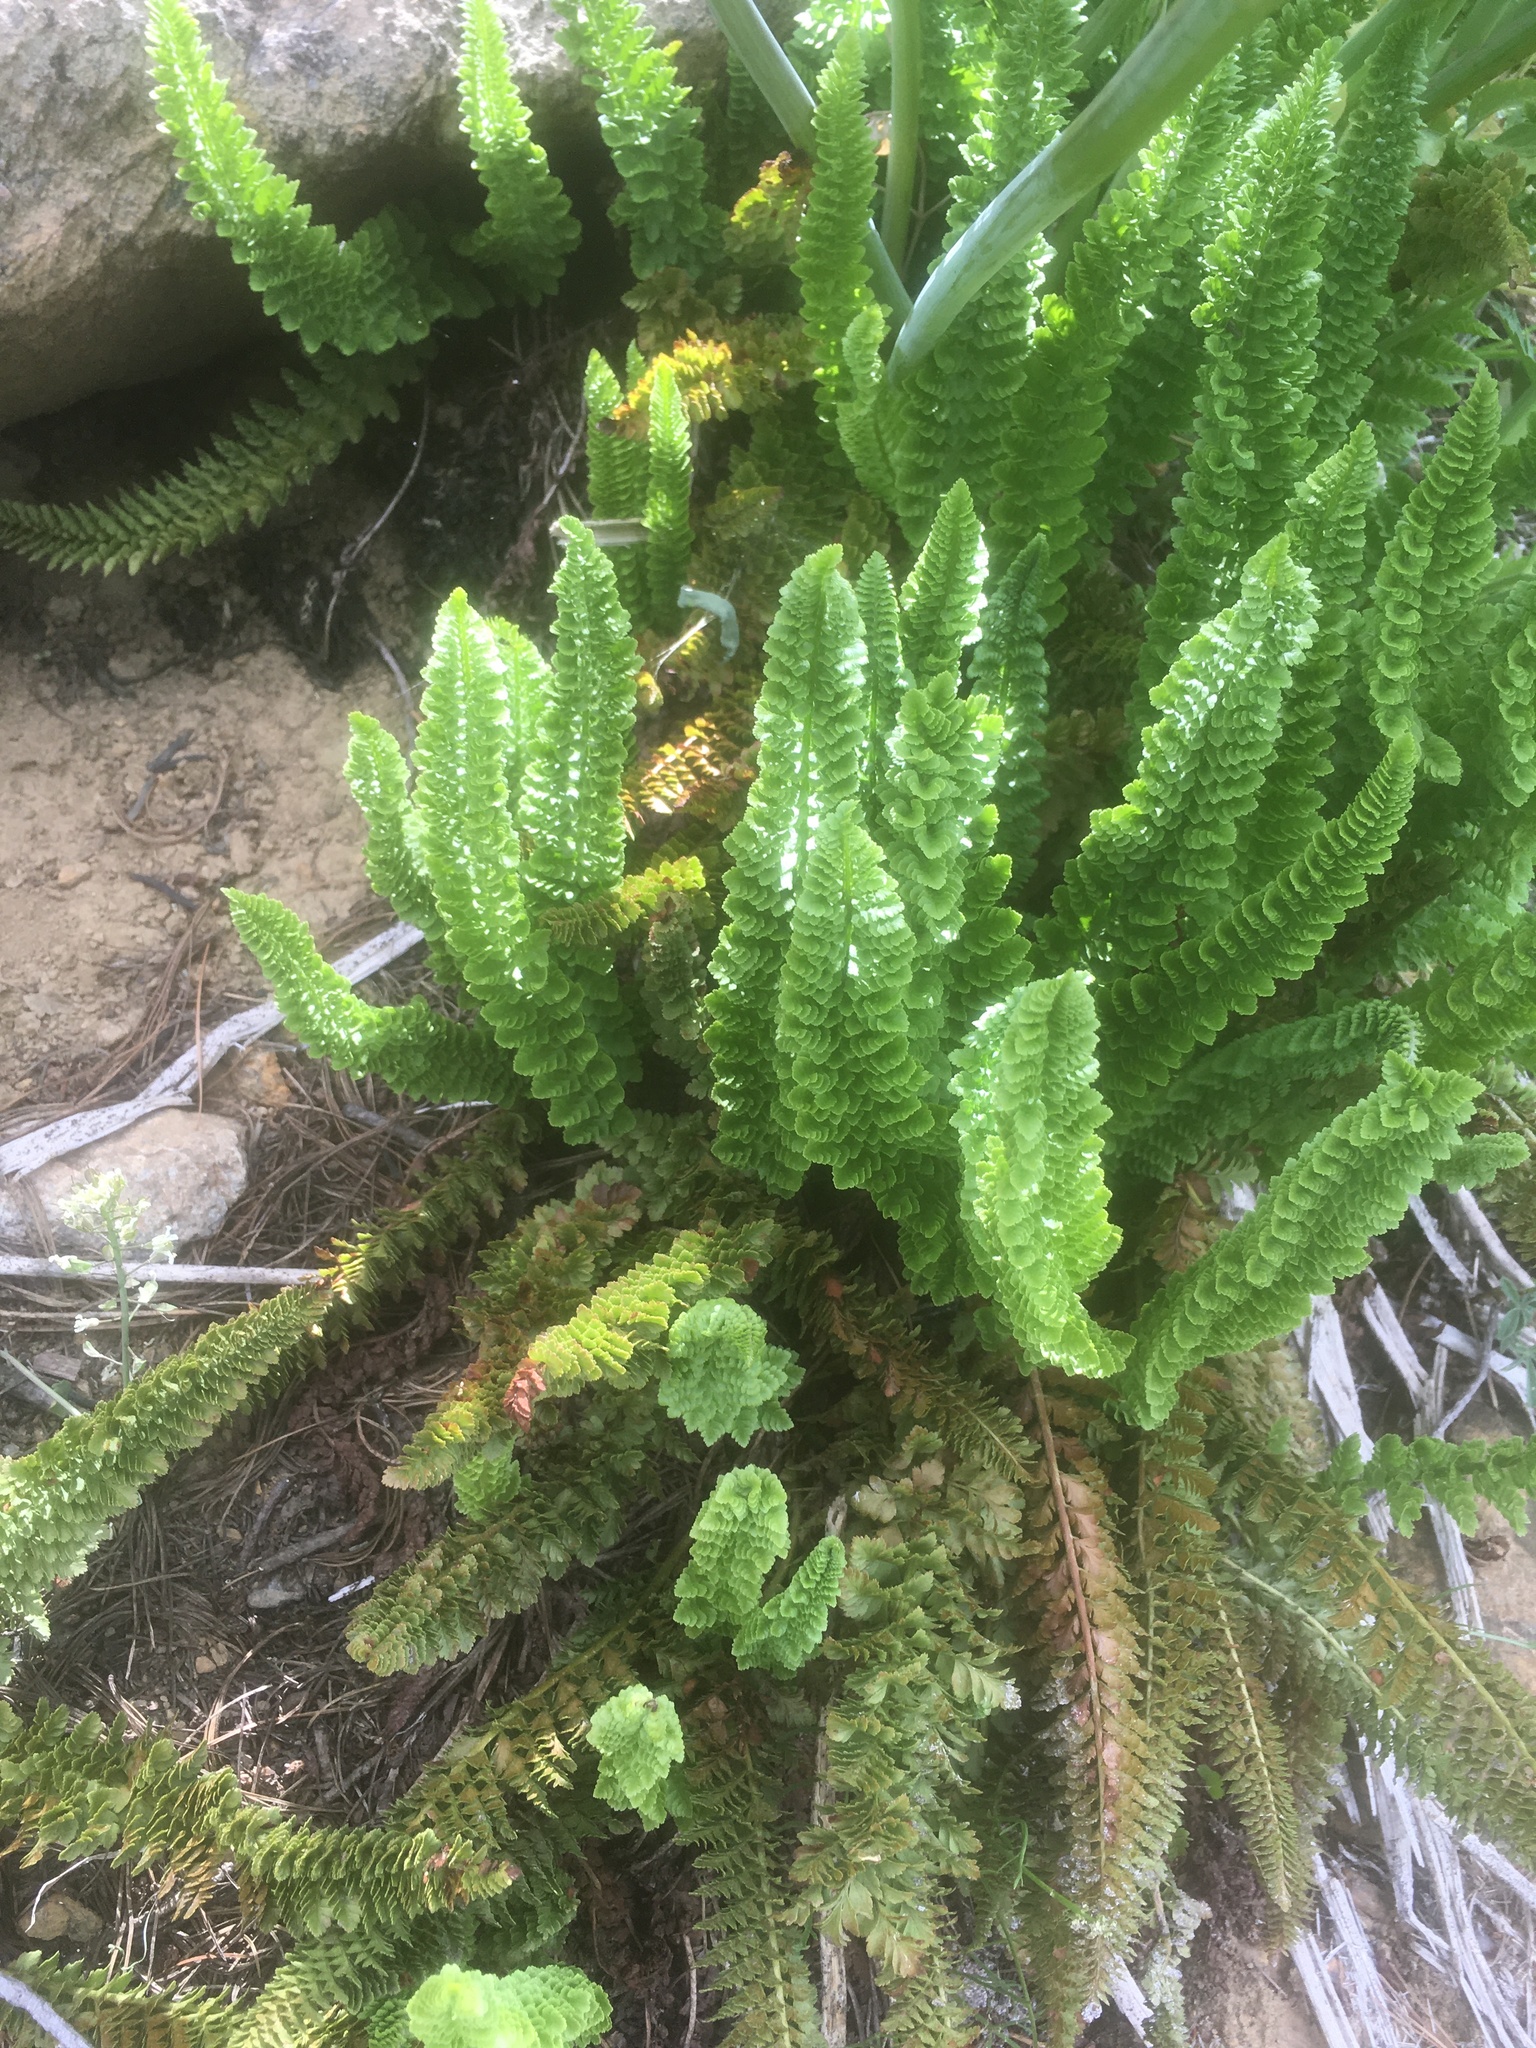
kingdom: Plantae
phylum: Tracheophyta
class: Polypodiopsida
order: Polypodiales
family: Dryopteridaceae
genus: Polystichum
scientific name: Polystichum lemmonii
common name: Lemmon's holly fern
